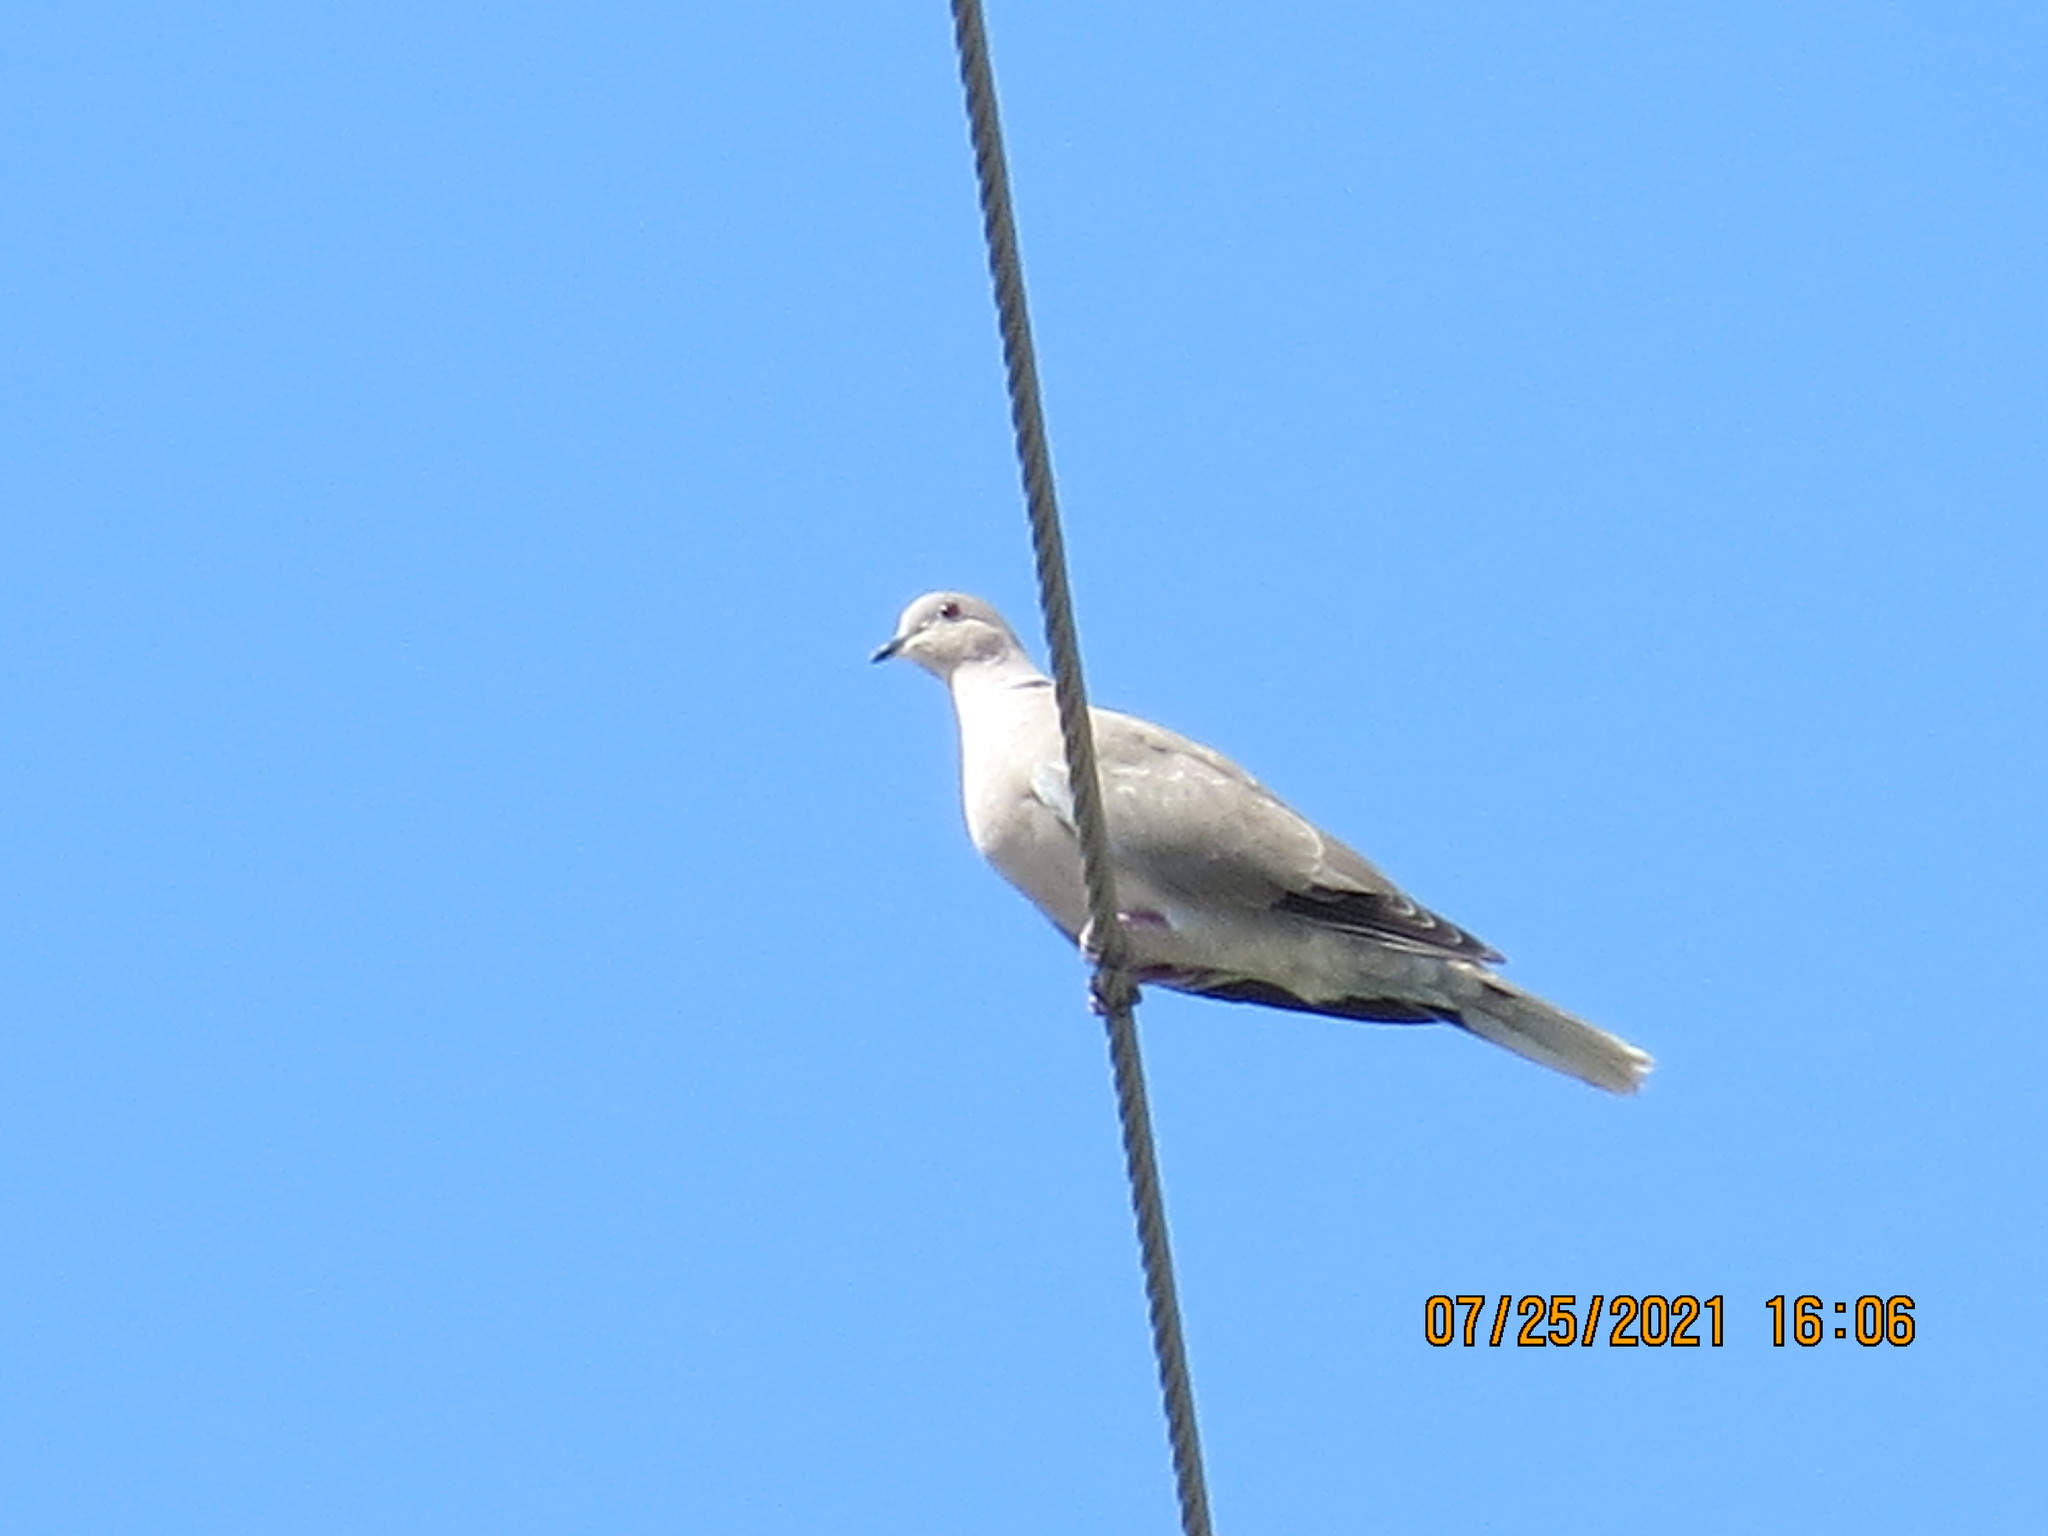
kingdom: Animalia
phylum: Chordata
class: Aves
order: Columbiformes
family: Columbidae
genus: Streptopelia
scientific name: Streptopelia decaocto
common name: Eurasian collared dove
